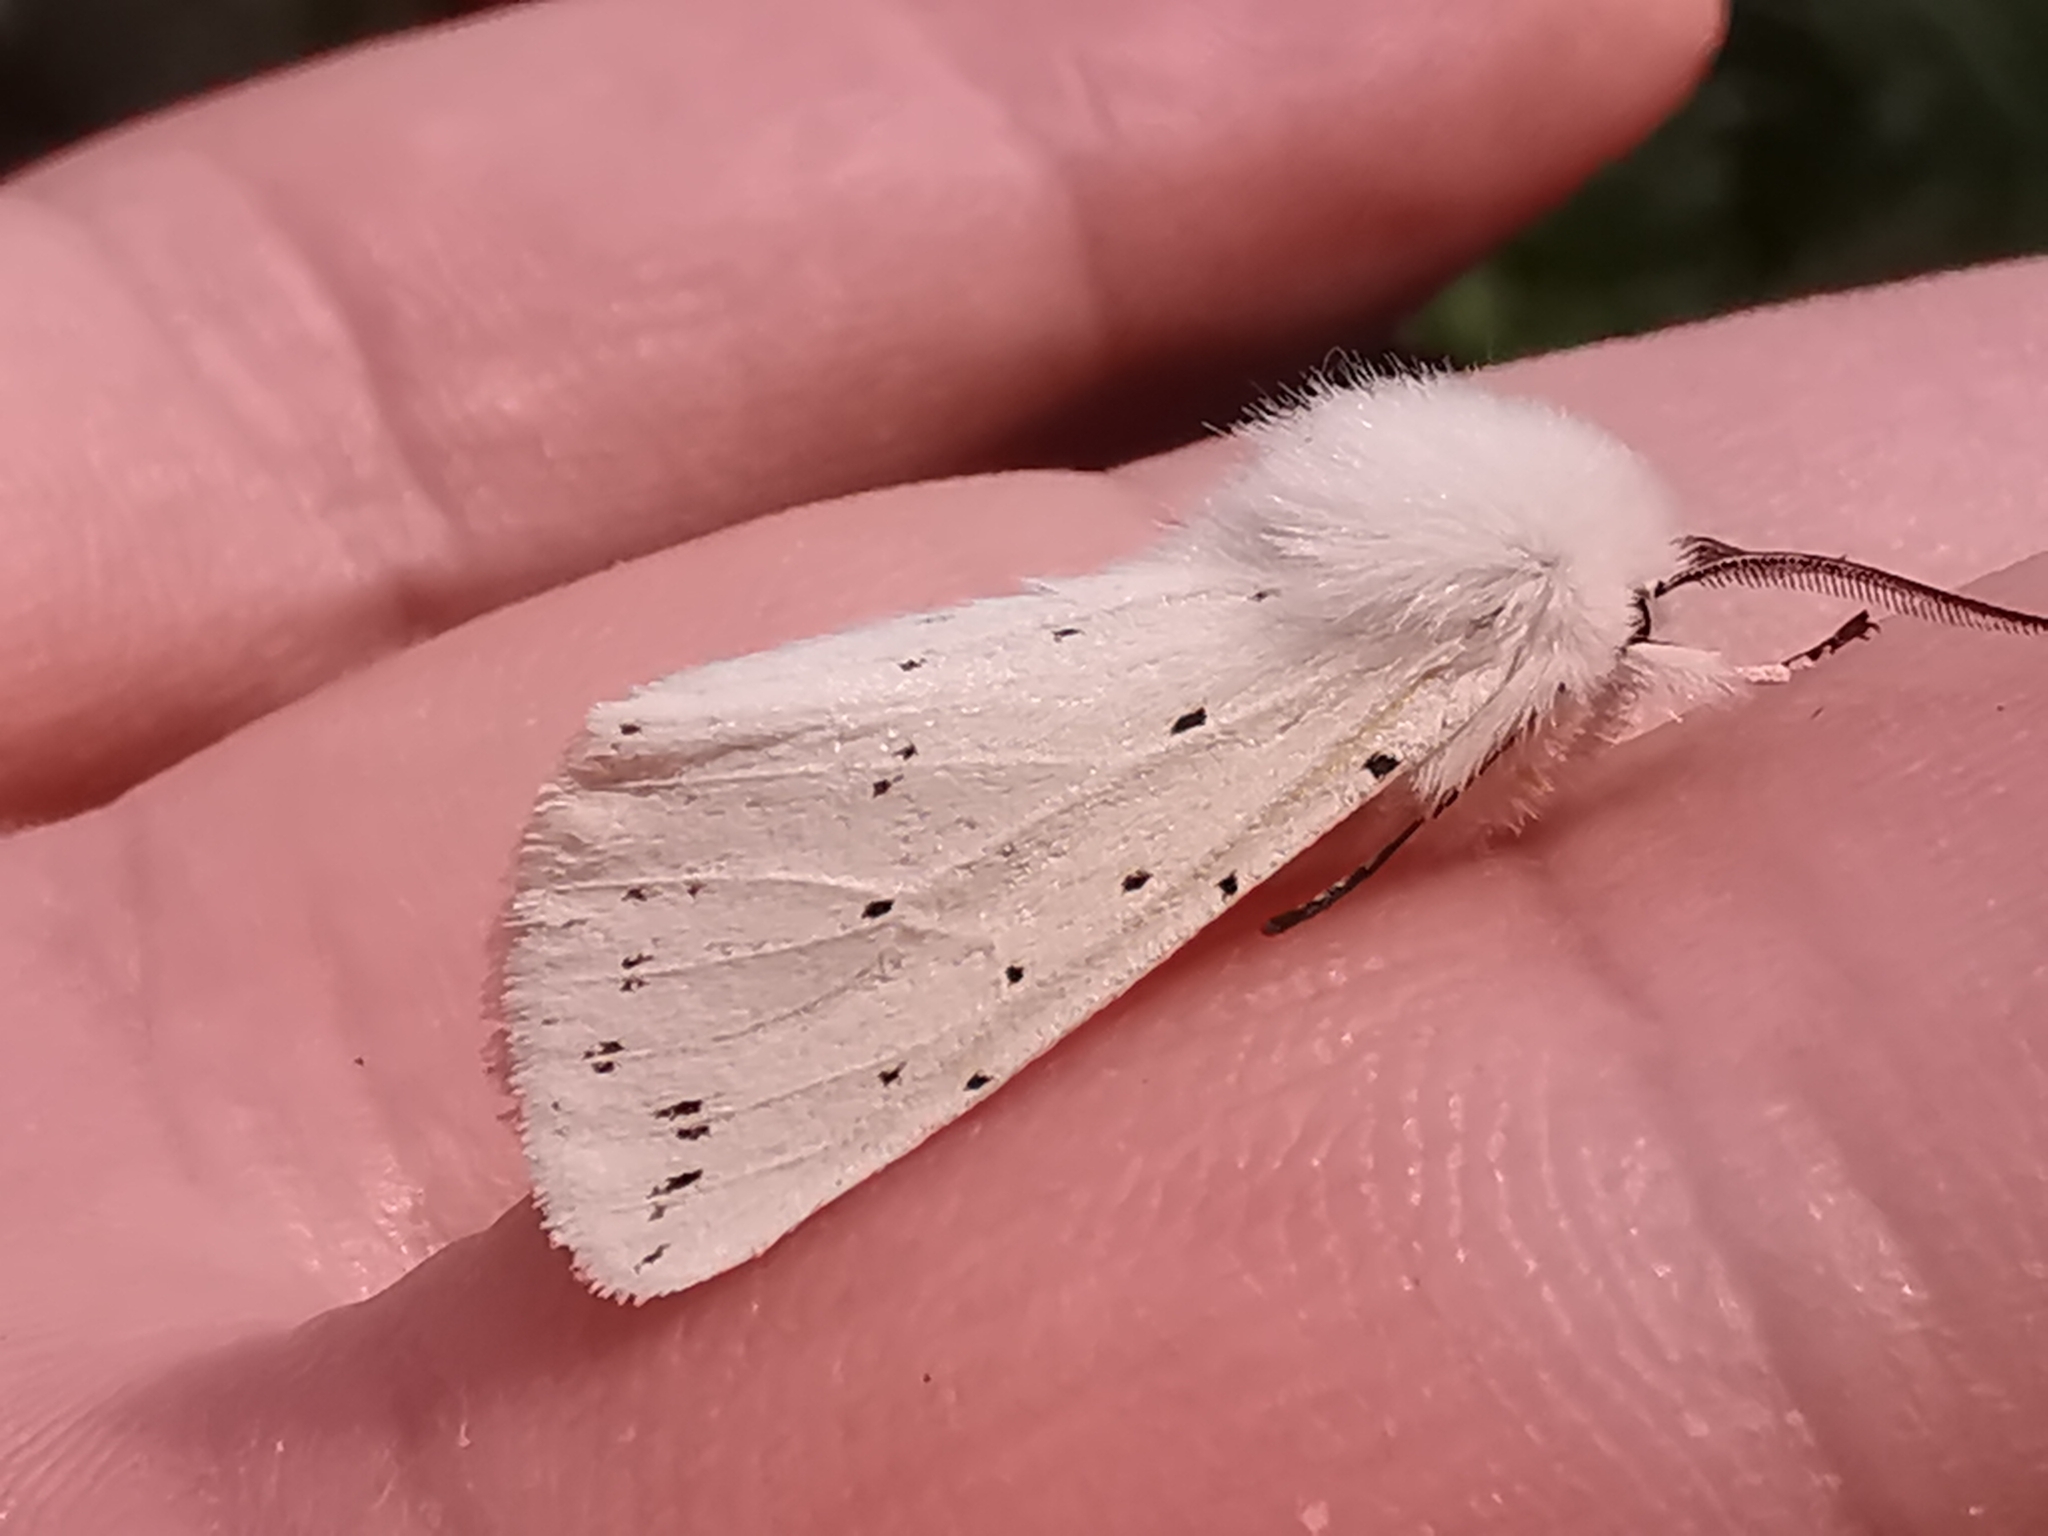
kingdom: Animalia
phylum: Arthropoda
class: Insecta
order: Lepidoptera
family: Erebidae
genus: Spilosoma
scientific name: Spilosoma lubricipeda
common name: White ermine
